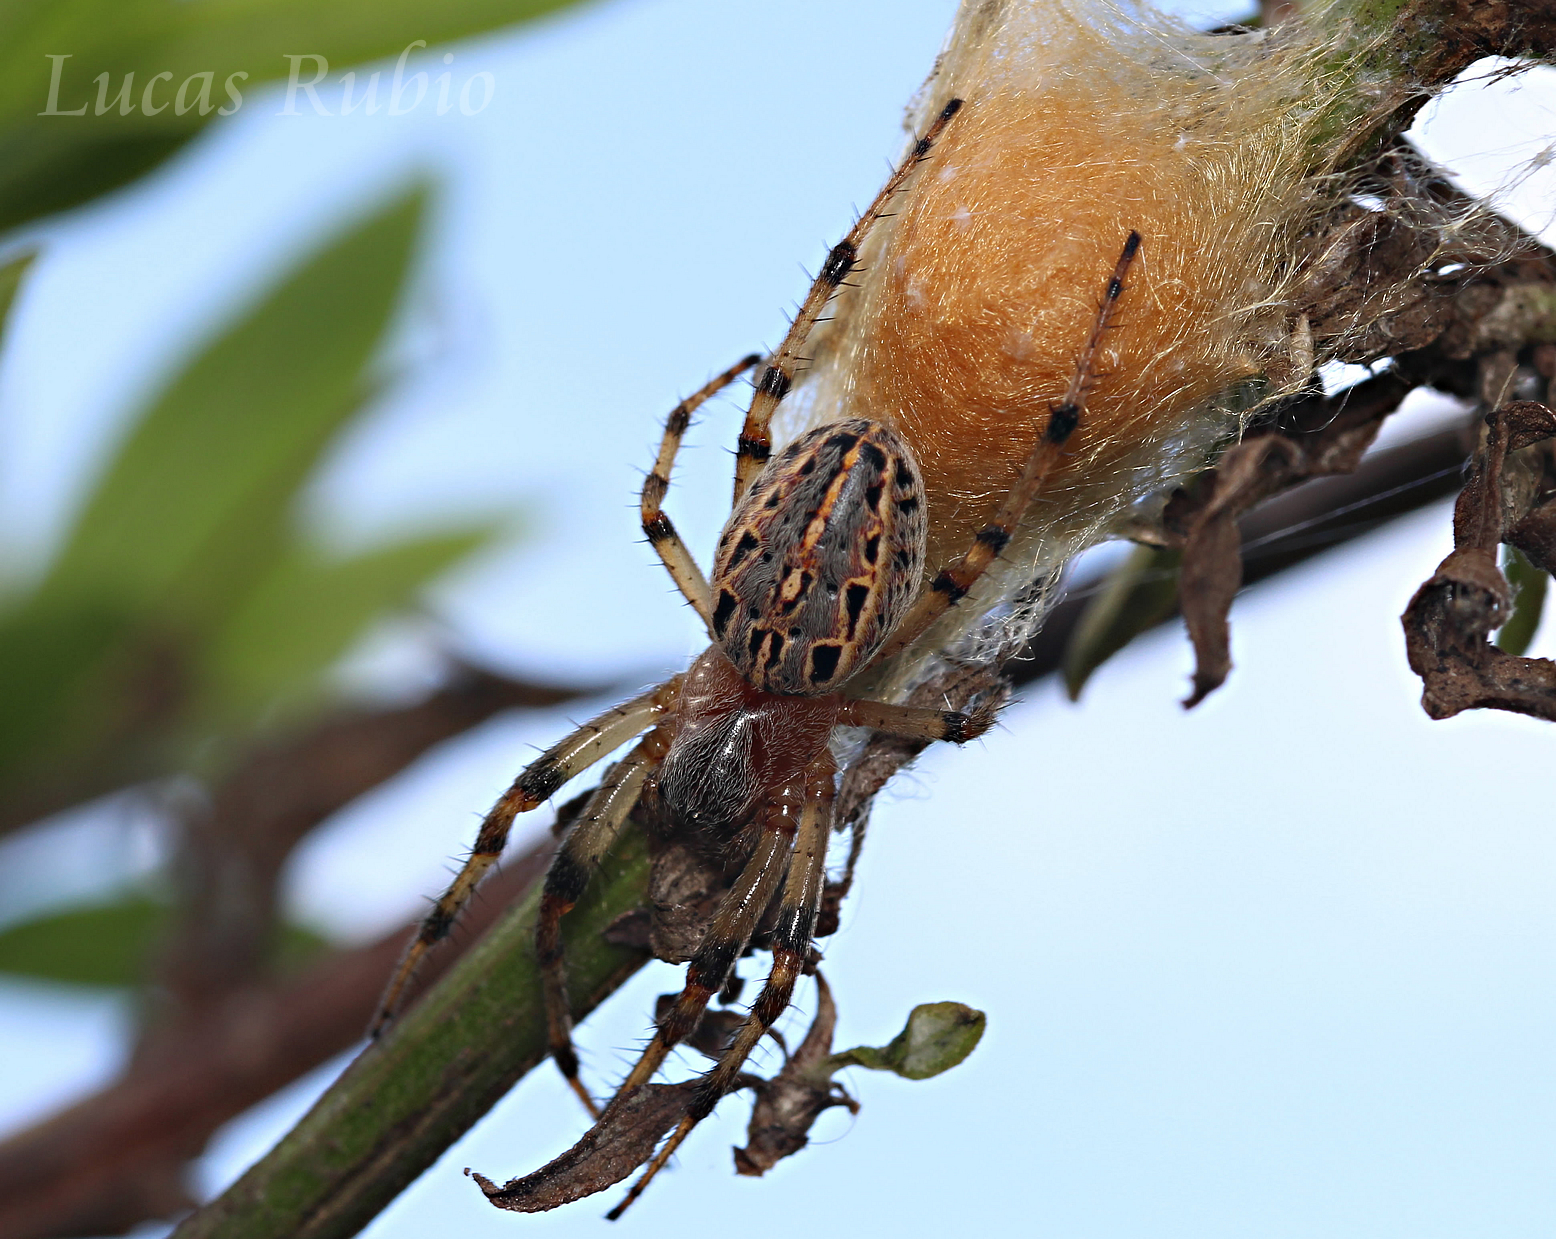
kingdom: Animalia
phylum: Arthropoda
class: Arachnida
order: Araneae
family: Araneidae
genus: Alpaida
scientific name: Alpaida veniliae
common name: Orb weavers
